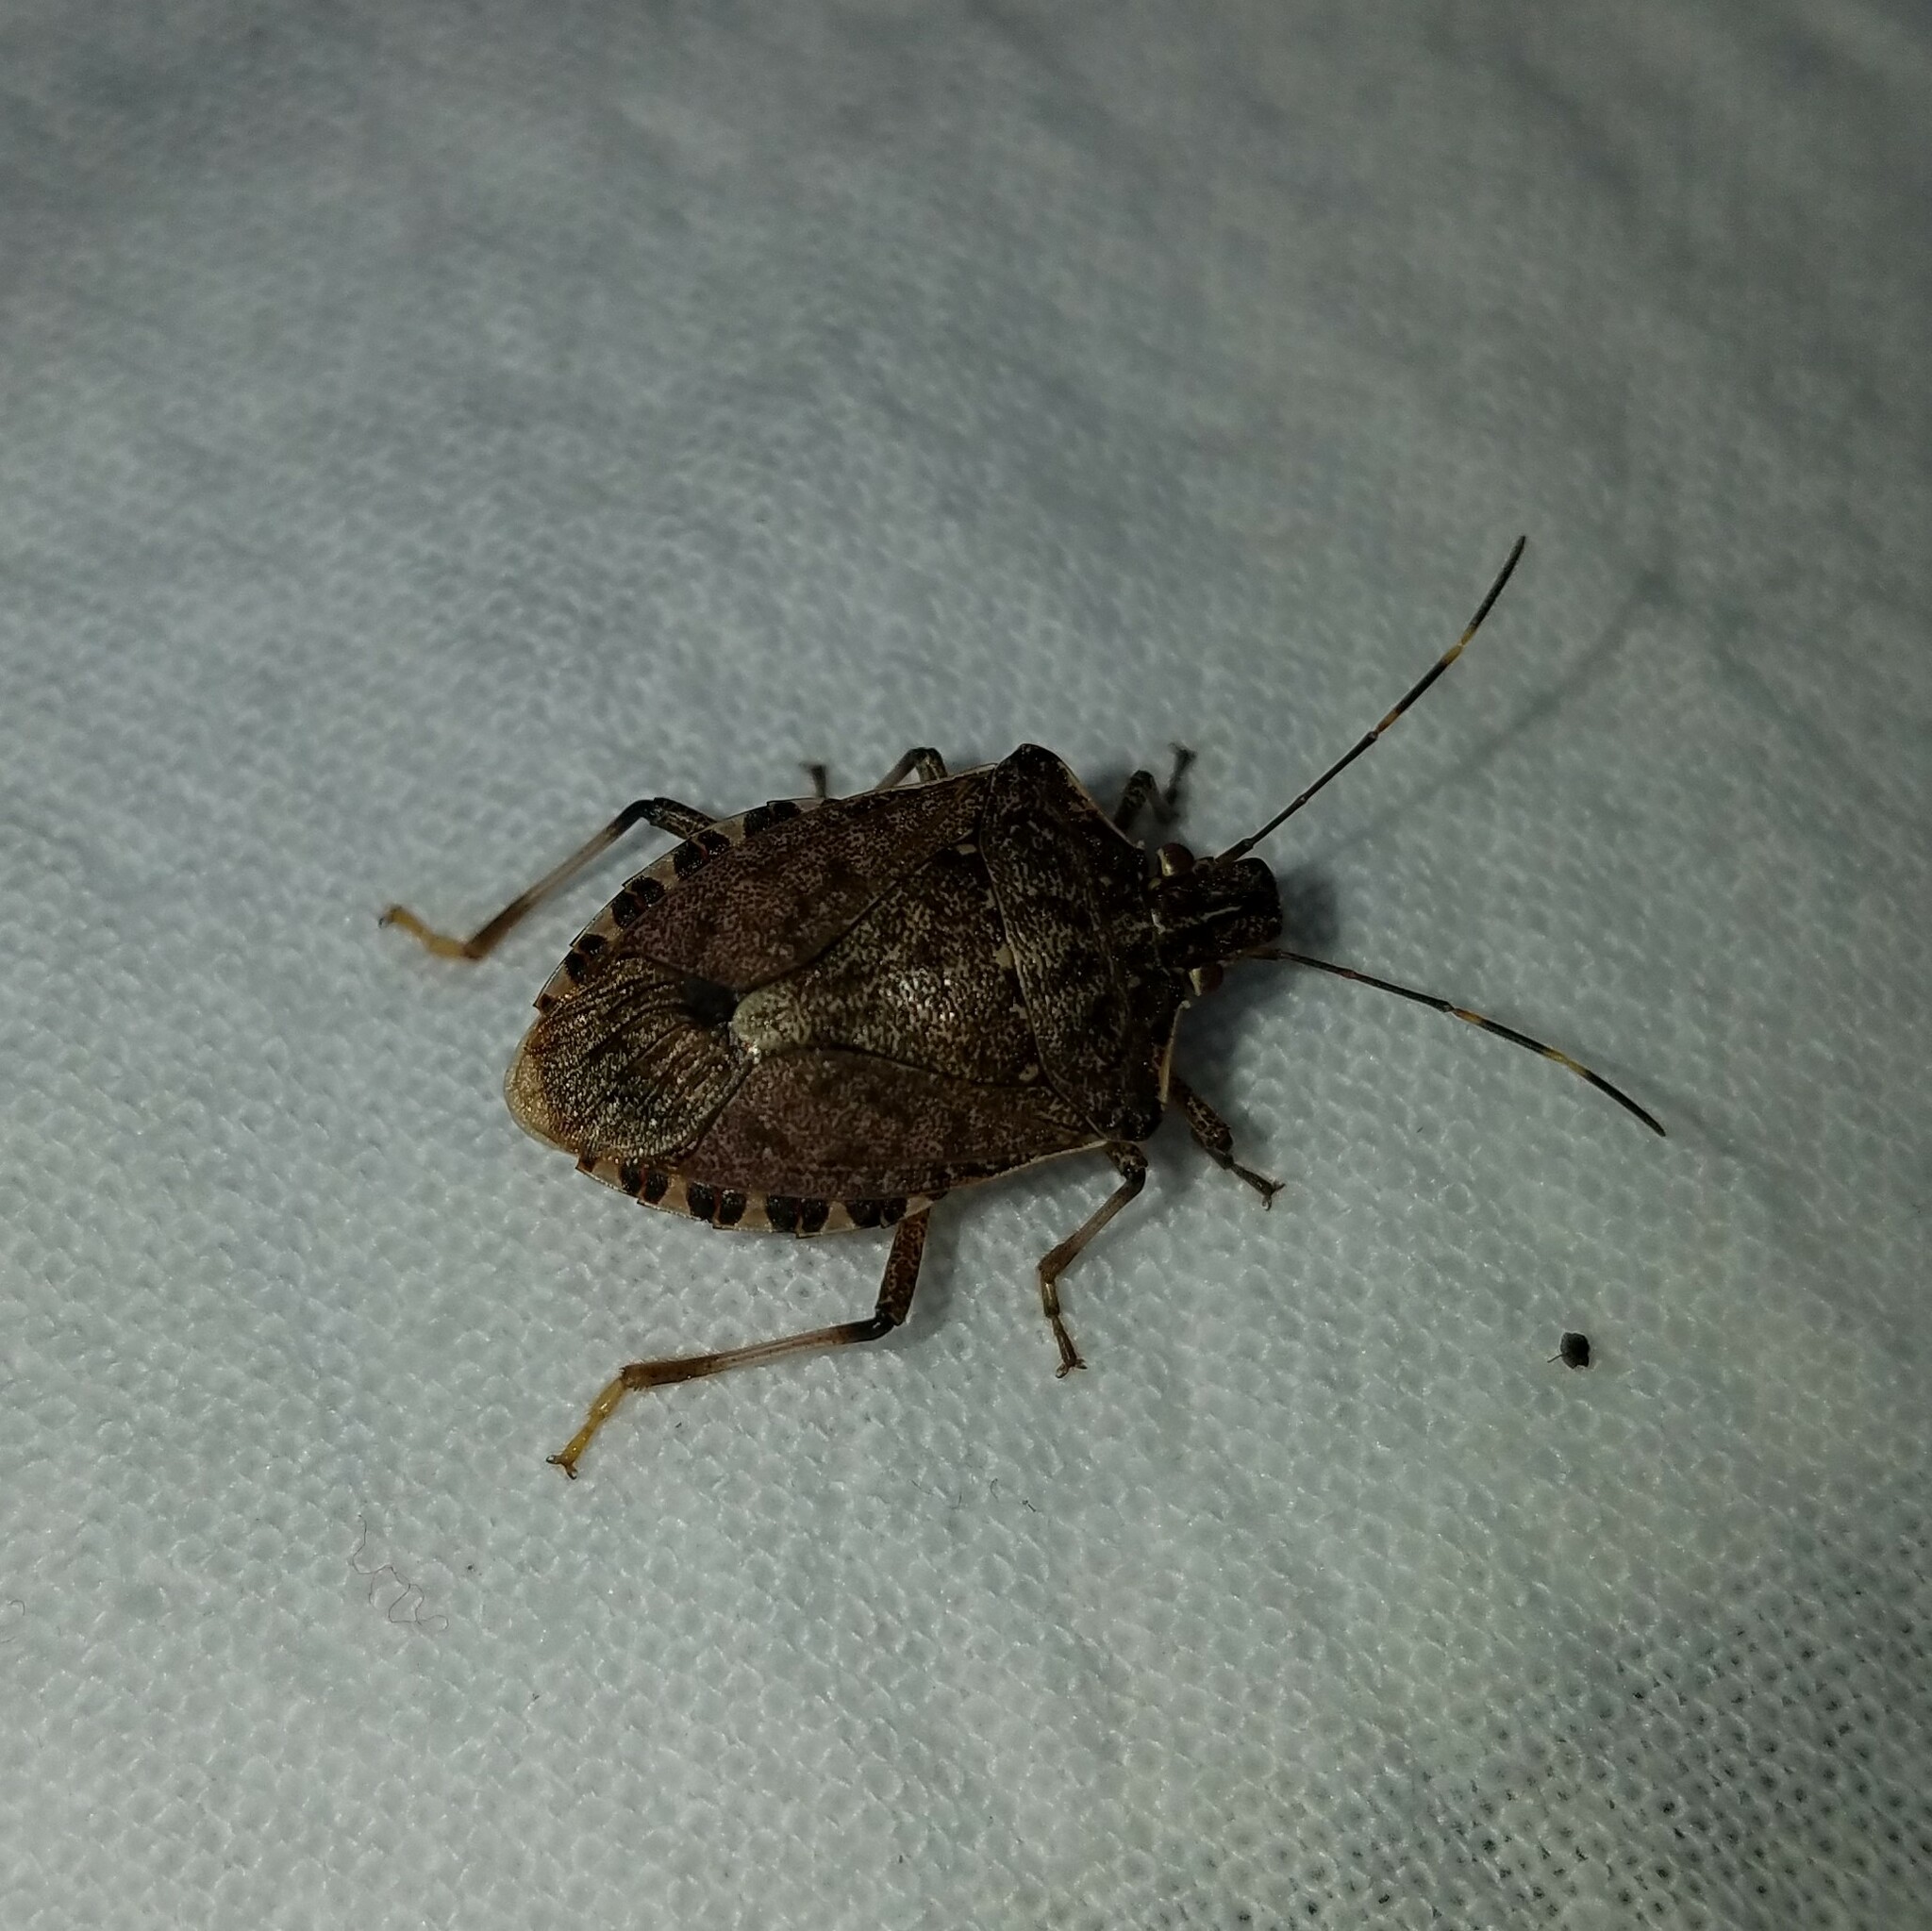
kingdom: Animalia
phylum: Arthropoda
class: Insecta
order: Hemiptera
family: Pentatomidae
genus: Halyomorpha
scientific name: Halyomorpha halys
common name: Brown marmorated stink bug
